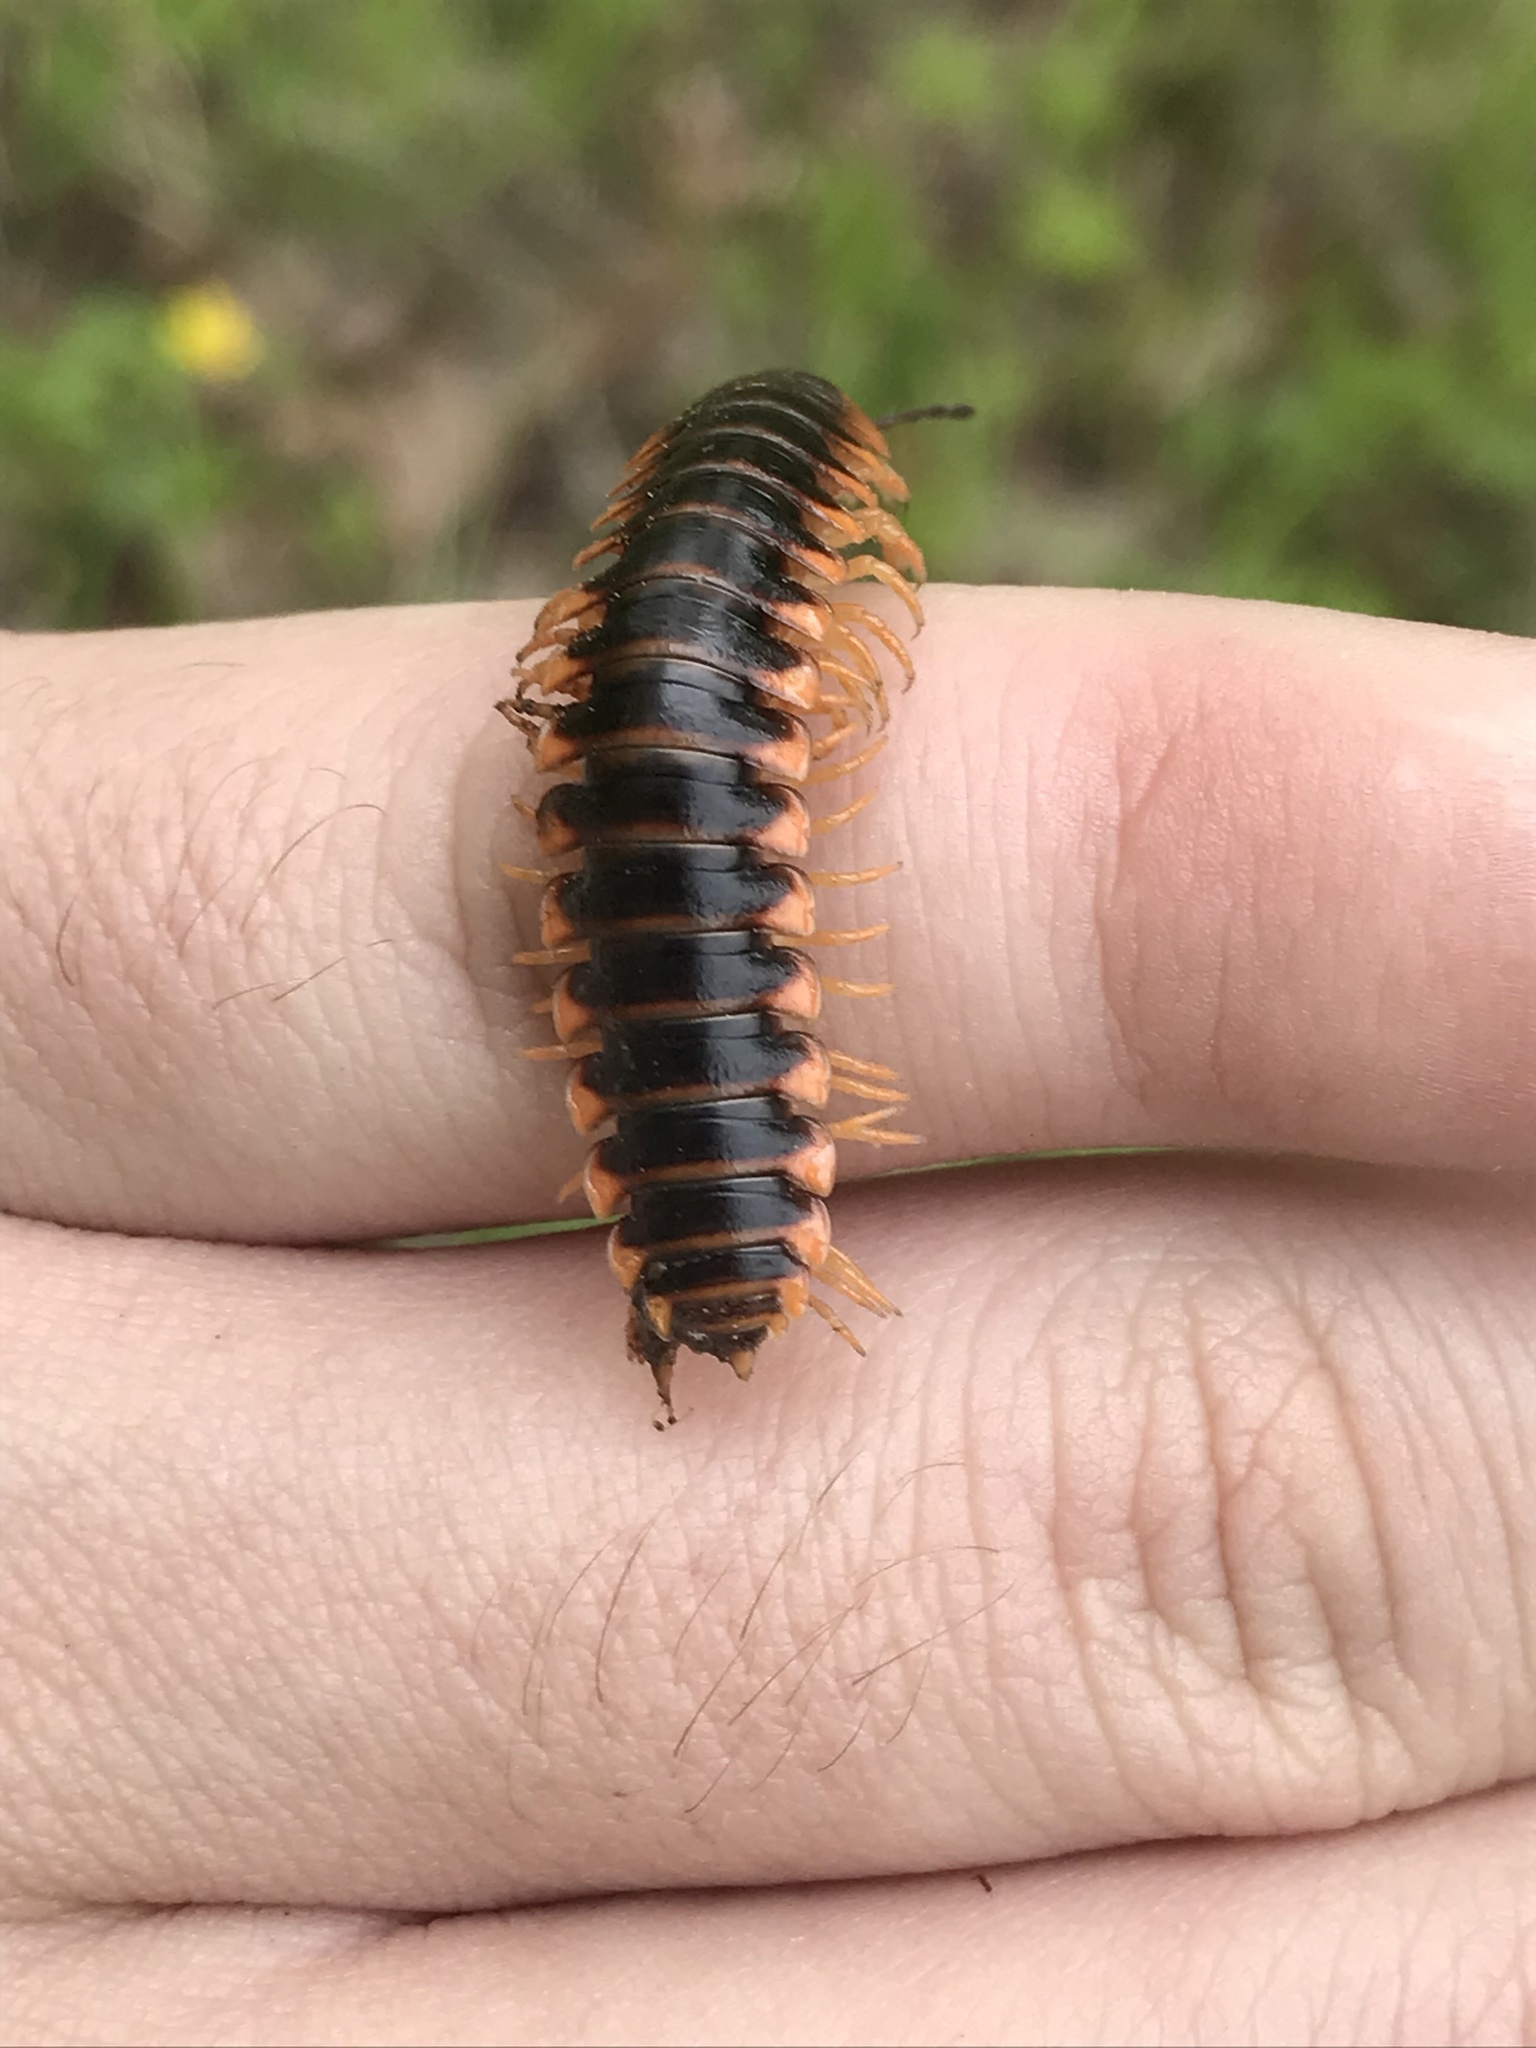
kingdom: Animalia
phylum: Arthropoda
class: Diplopoda
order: Polydesmida
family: Xystodesmidae
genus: Apheloria
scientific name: Apheloria virginiensis
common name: Black-and-gold flat millipede
